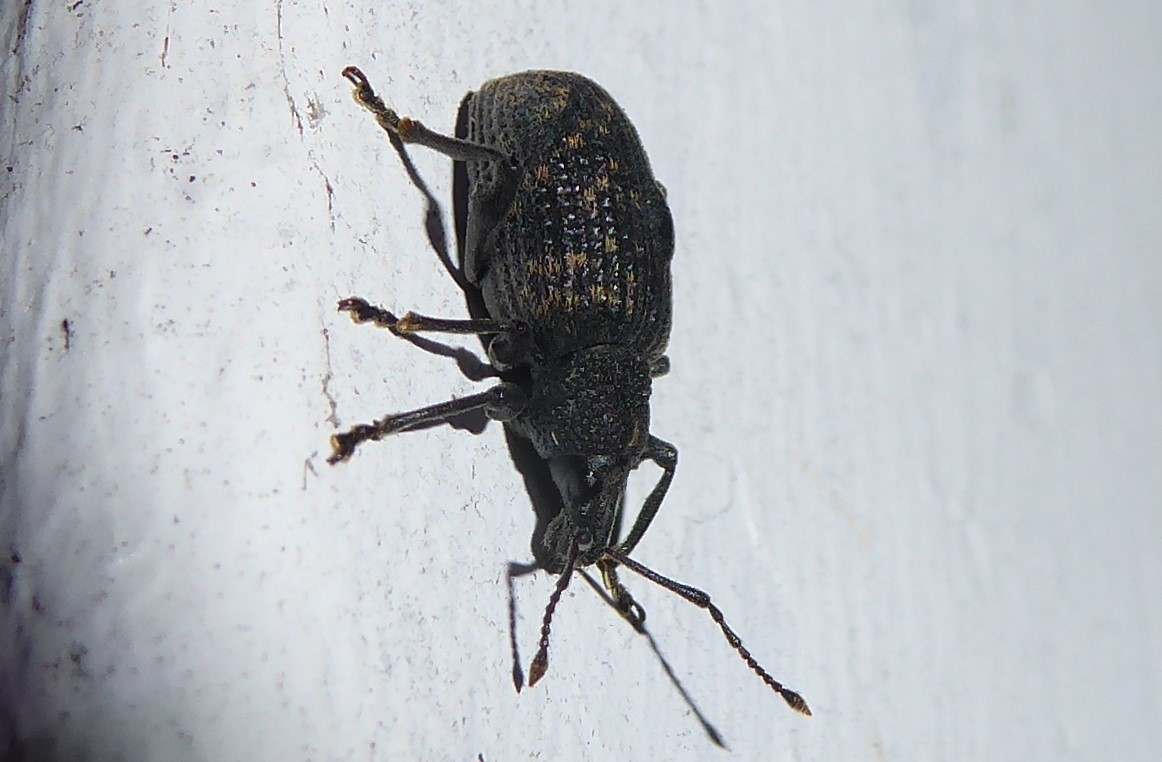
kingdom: Animalia
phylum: Arthropoda
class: Insecta
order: Coleoptera
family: Curculionidae
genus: Otiorhynchus
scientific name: Otiorhynchus sulcatus
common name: Black vine weevil
